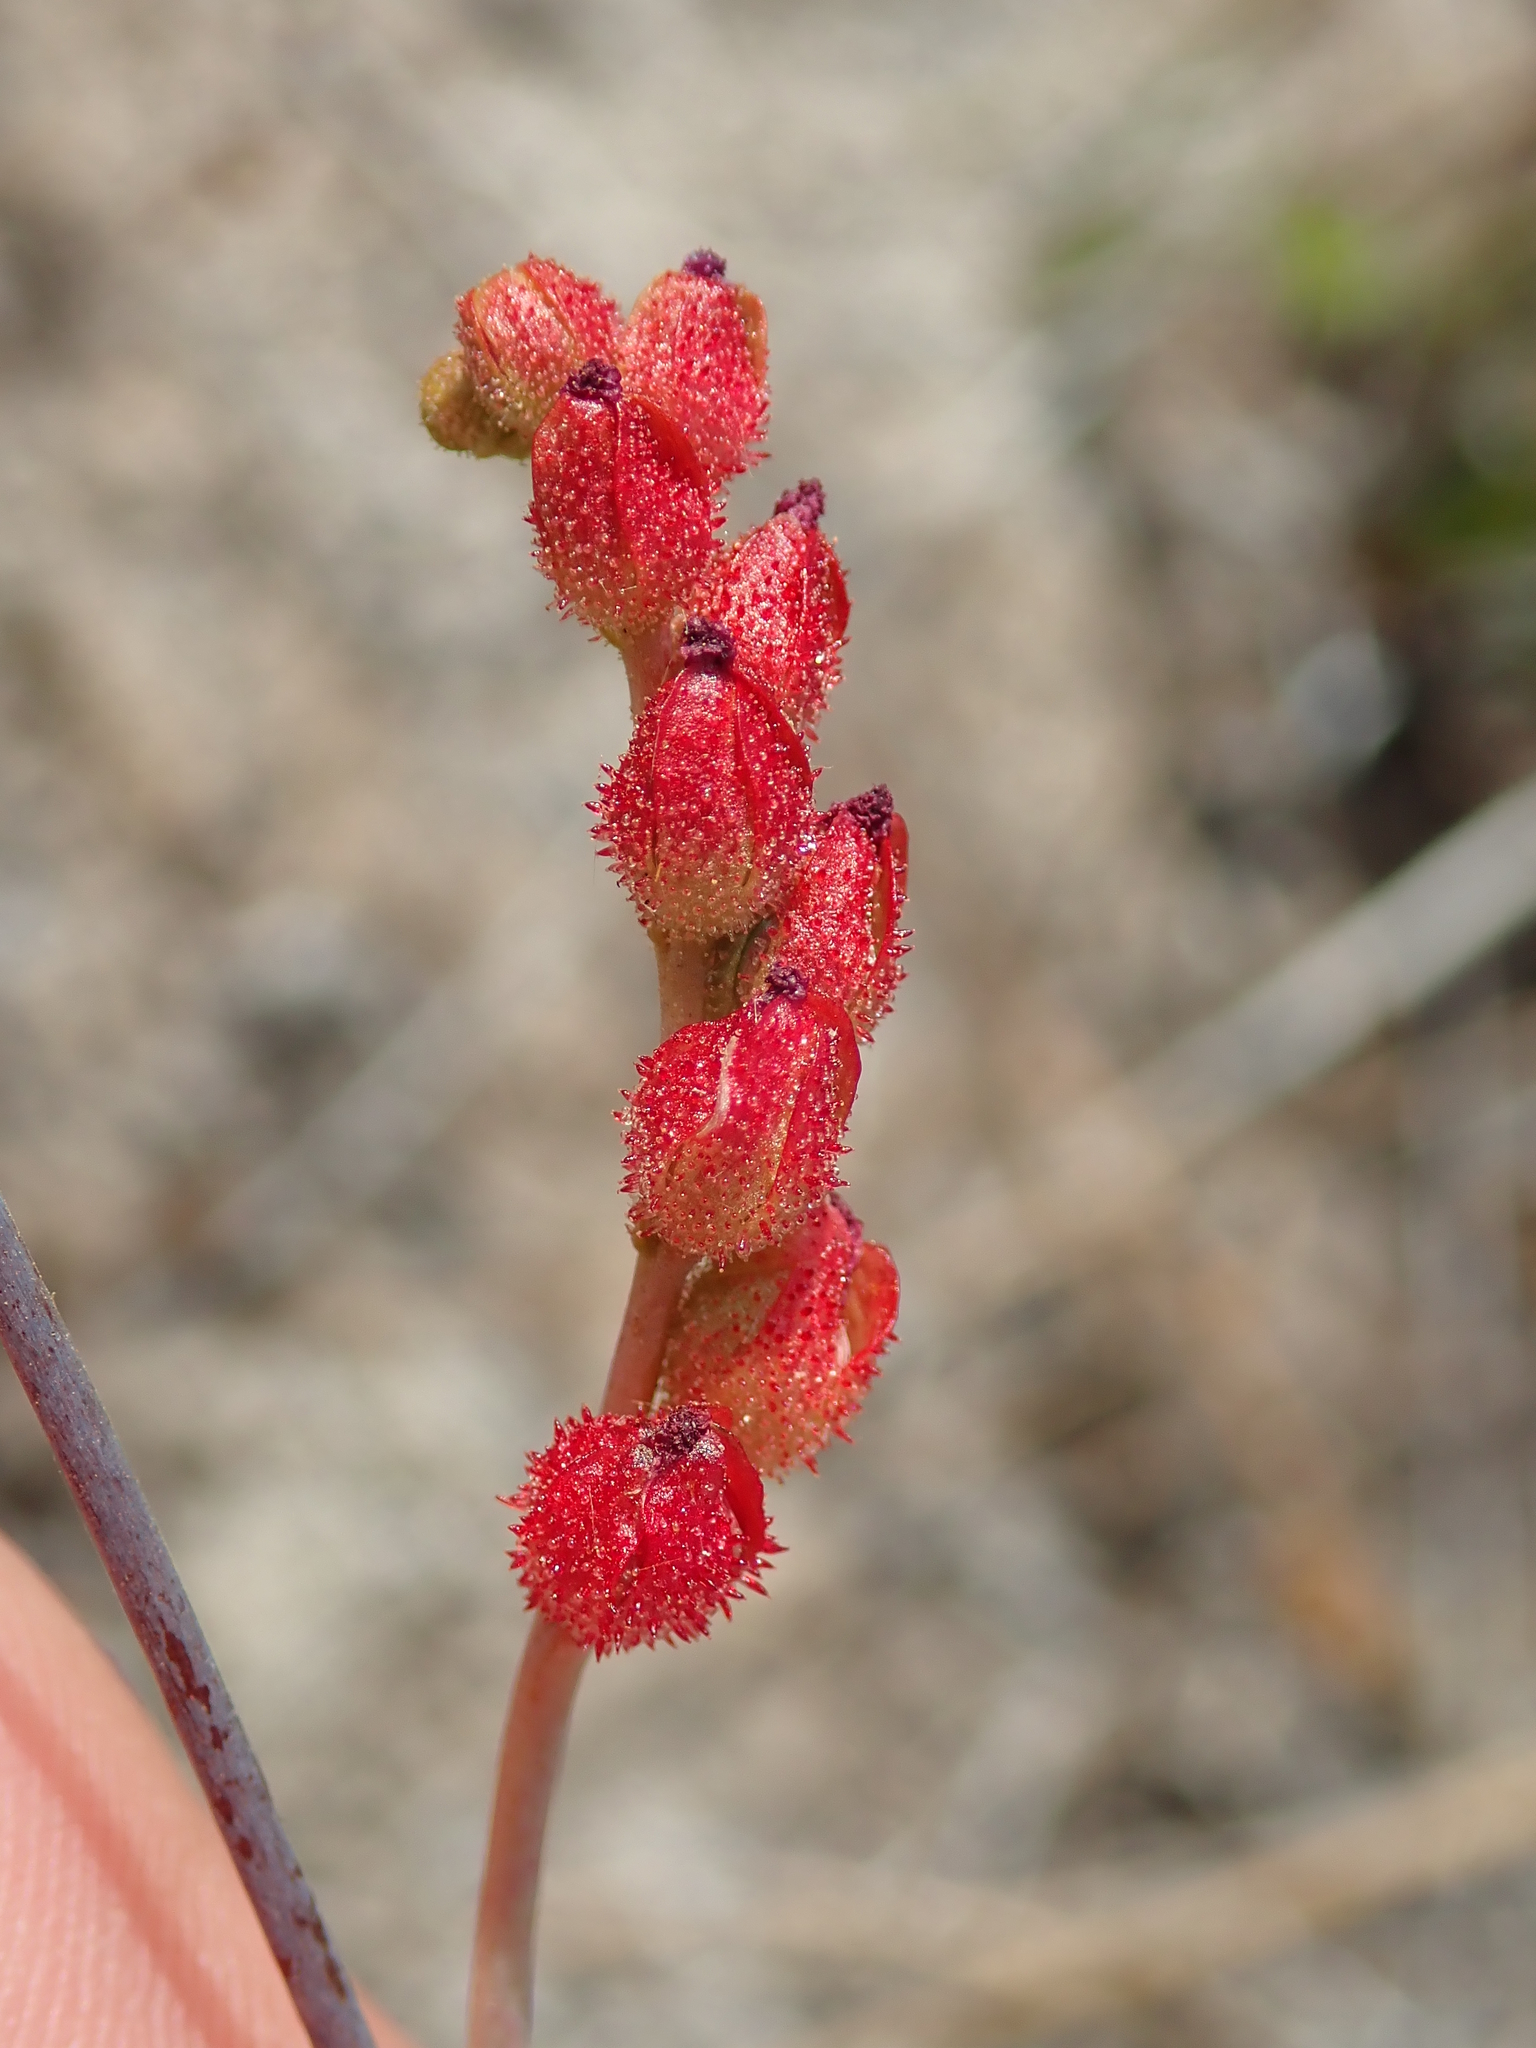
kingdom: Plantae
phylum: Tracheophyta
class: Magnoliopsida
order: Caryophyllales
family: Droseraceae
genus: Drosera
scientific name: Drosera sessilifolia
